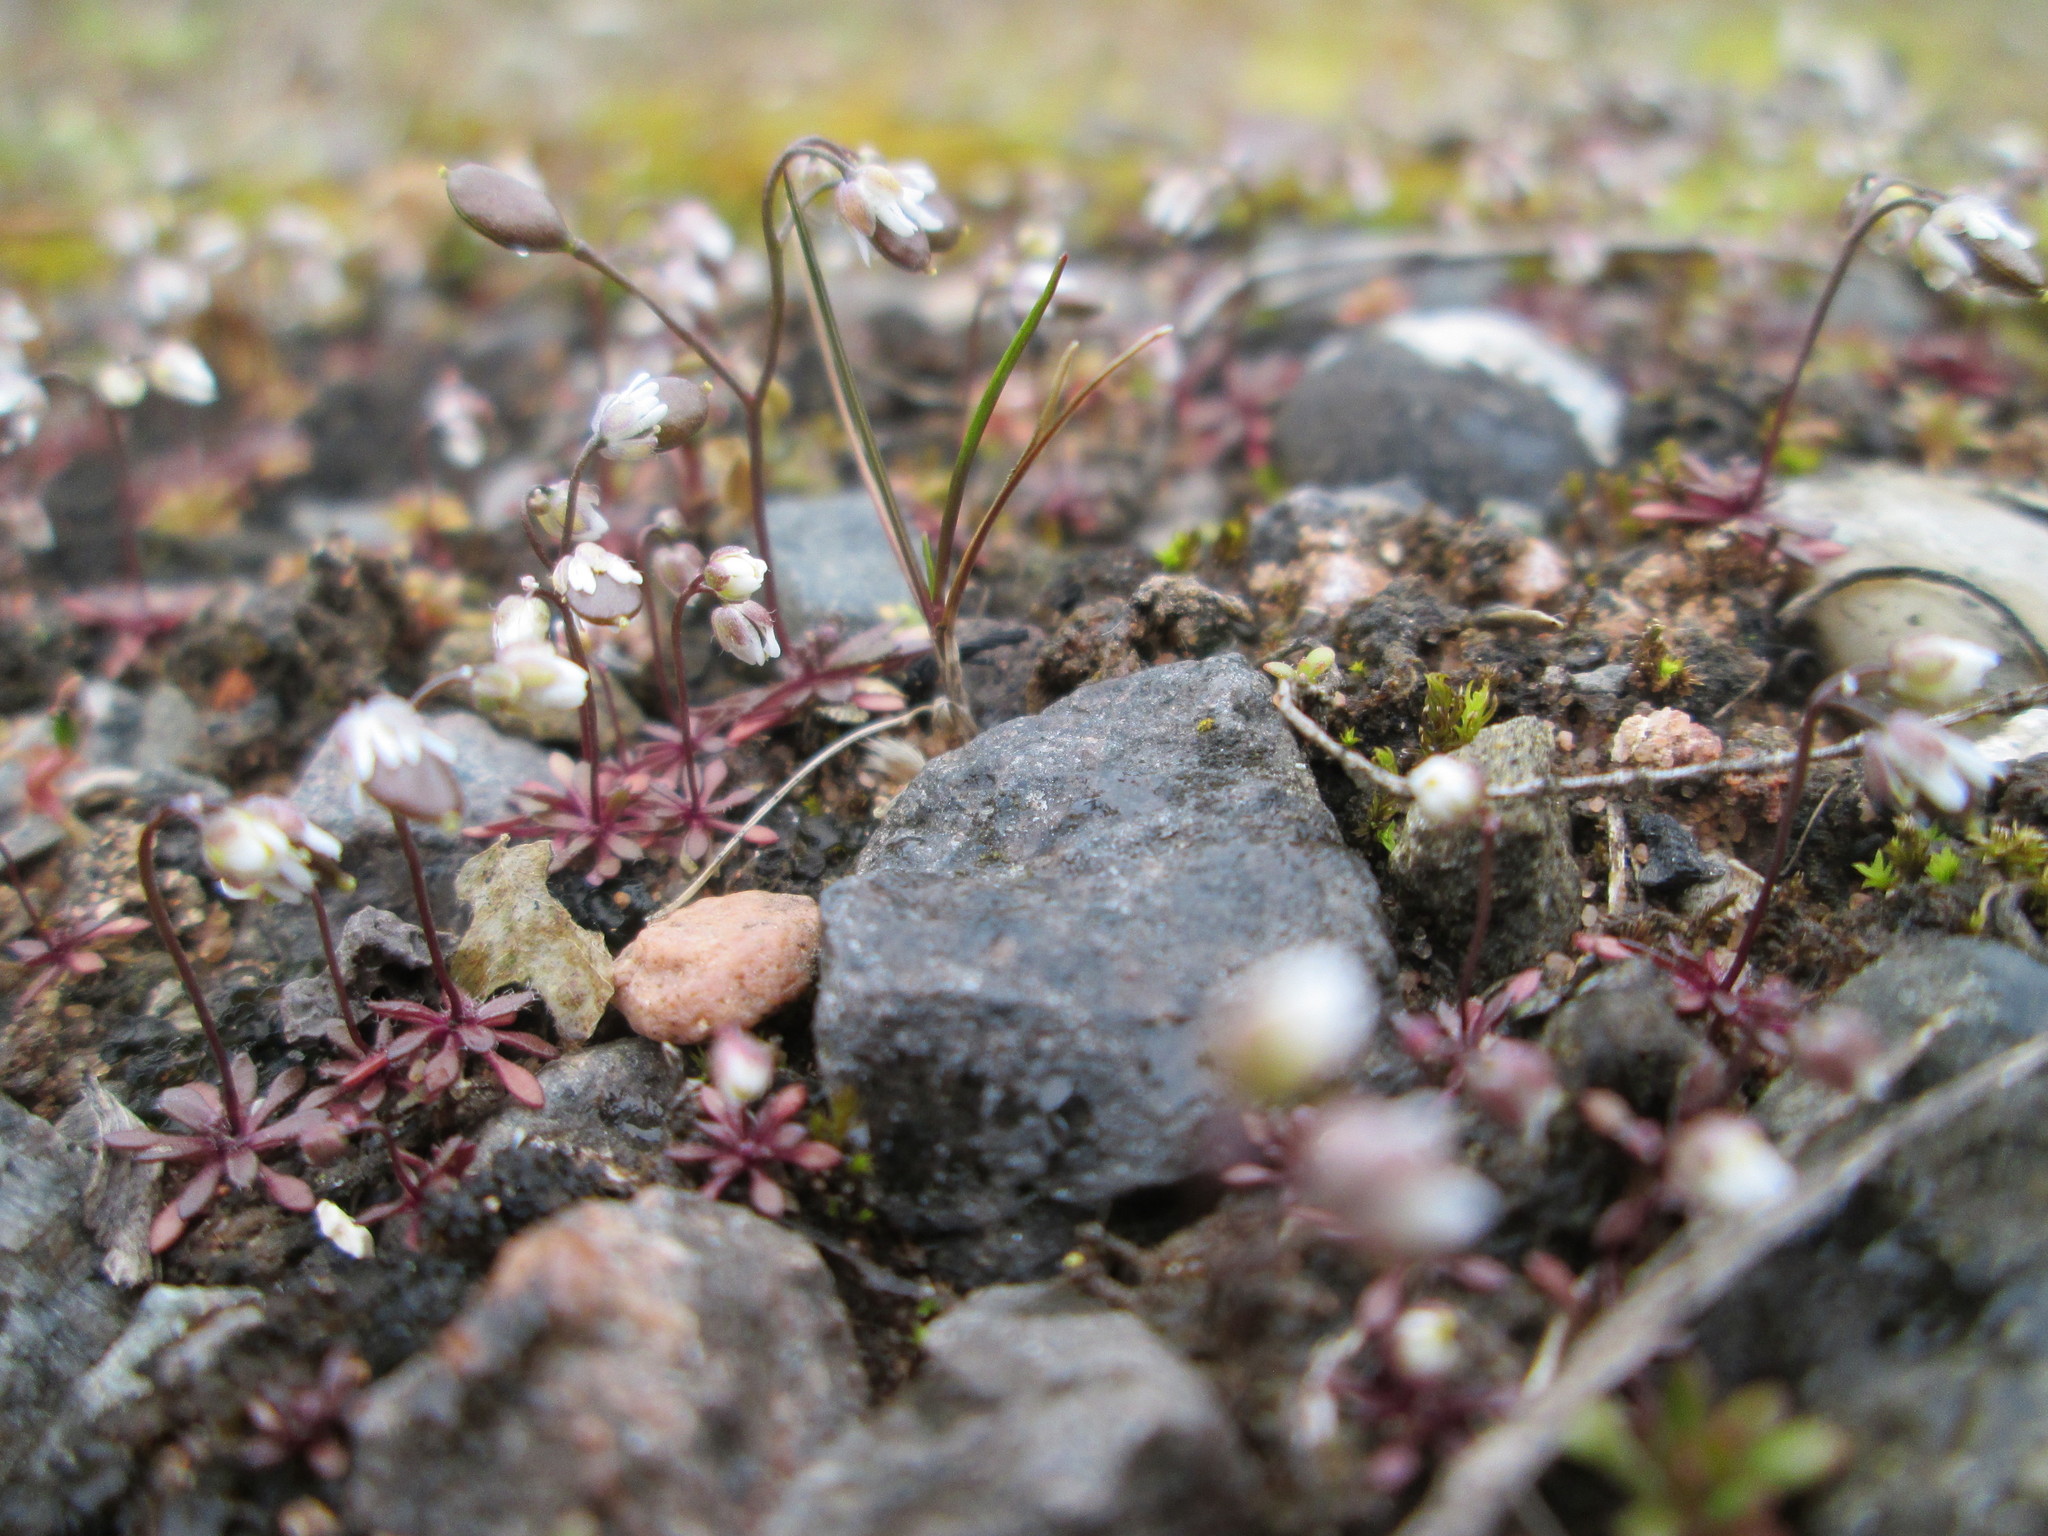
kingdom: Plantae
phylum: Tracheophyta
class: Magnoliopsida
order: Brassicales
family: Brassicaceae
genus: Draba
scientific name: Draba verna
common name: Spring draba
